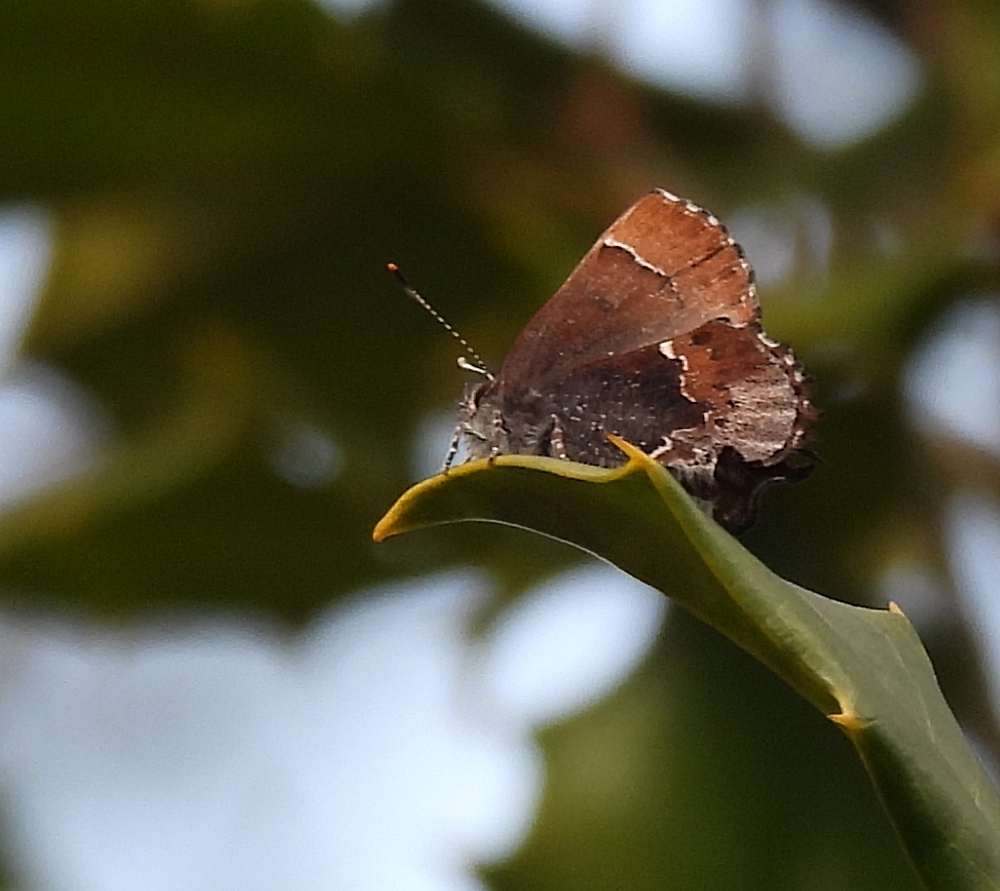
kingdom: Animalia
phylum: Arthropoda
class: Insecta
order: Lepidoptera
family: Lycaenidae
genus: Incisalia
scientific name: Incisalia henrici
